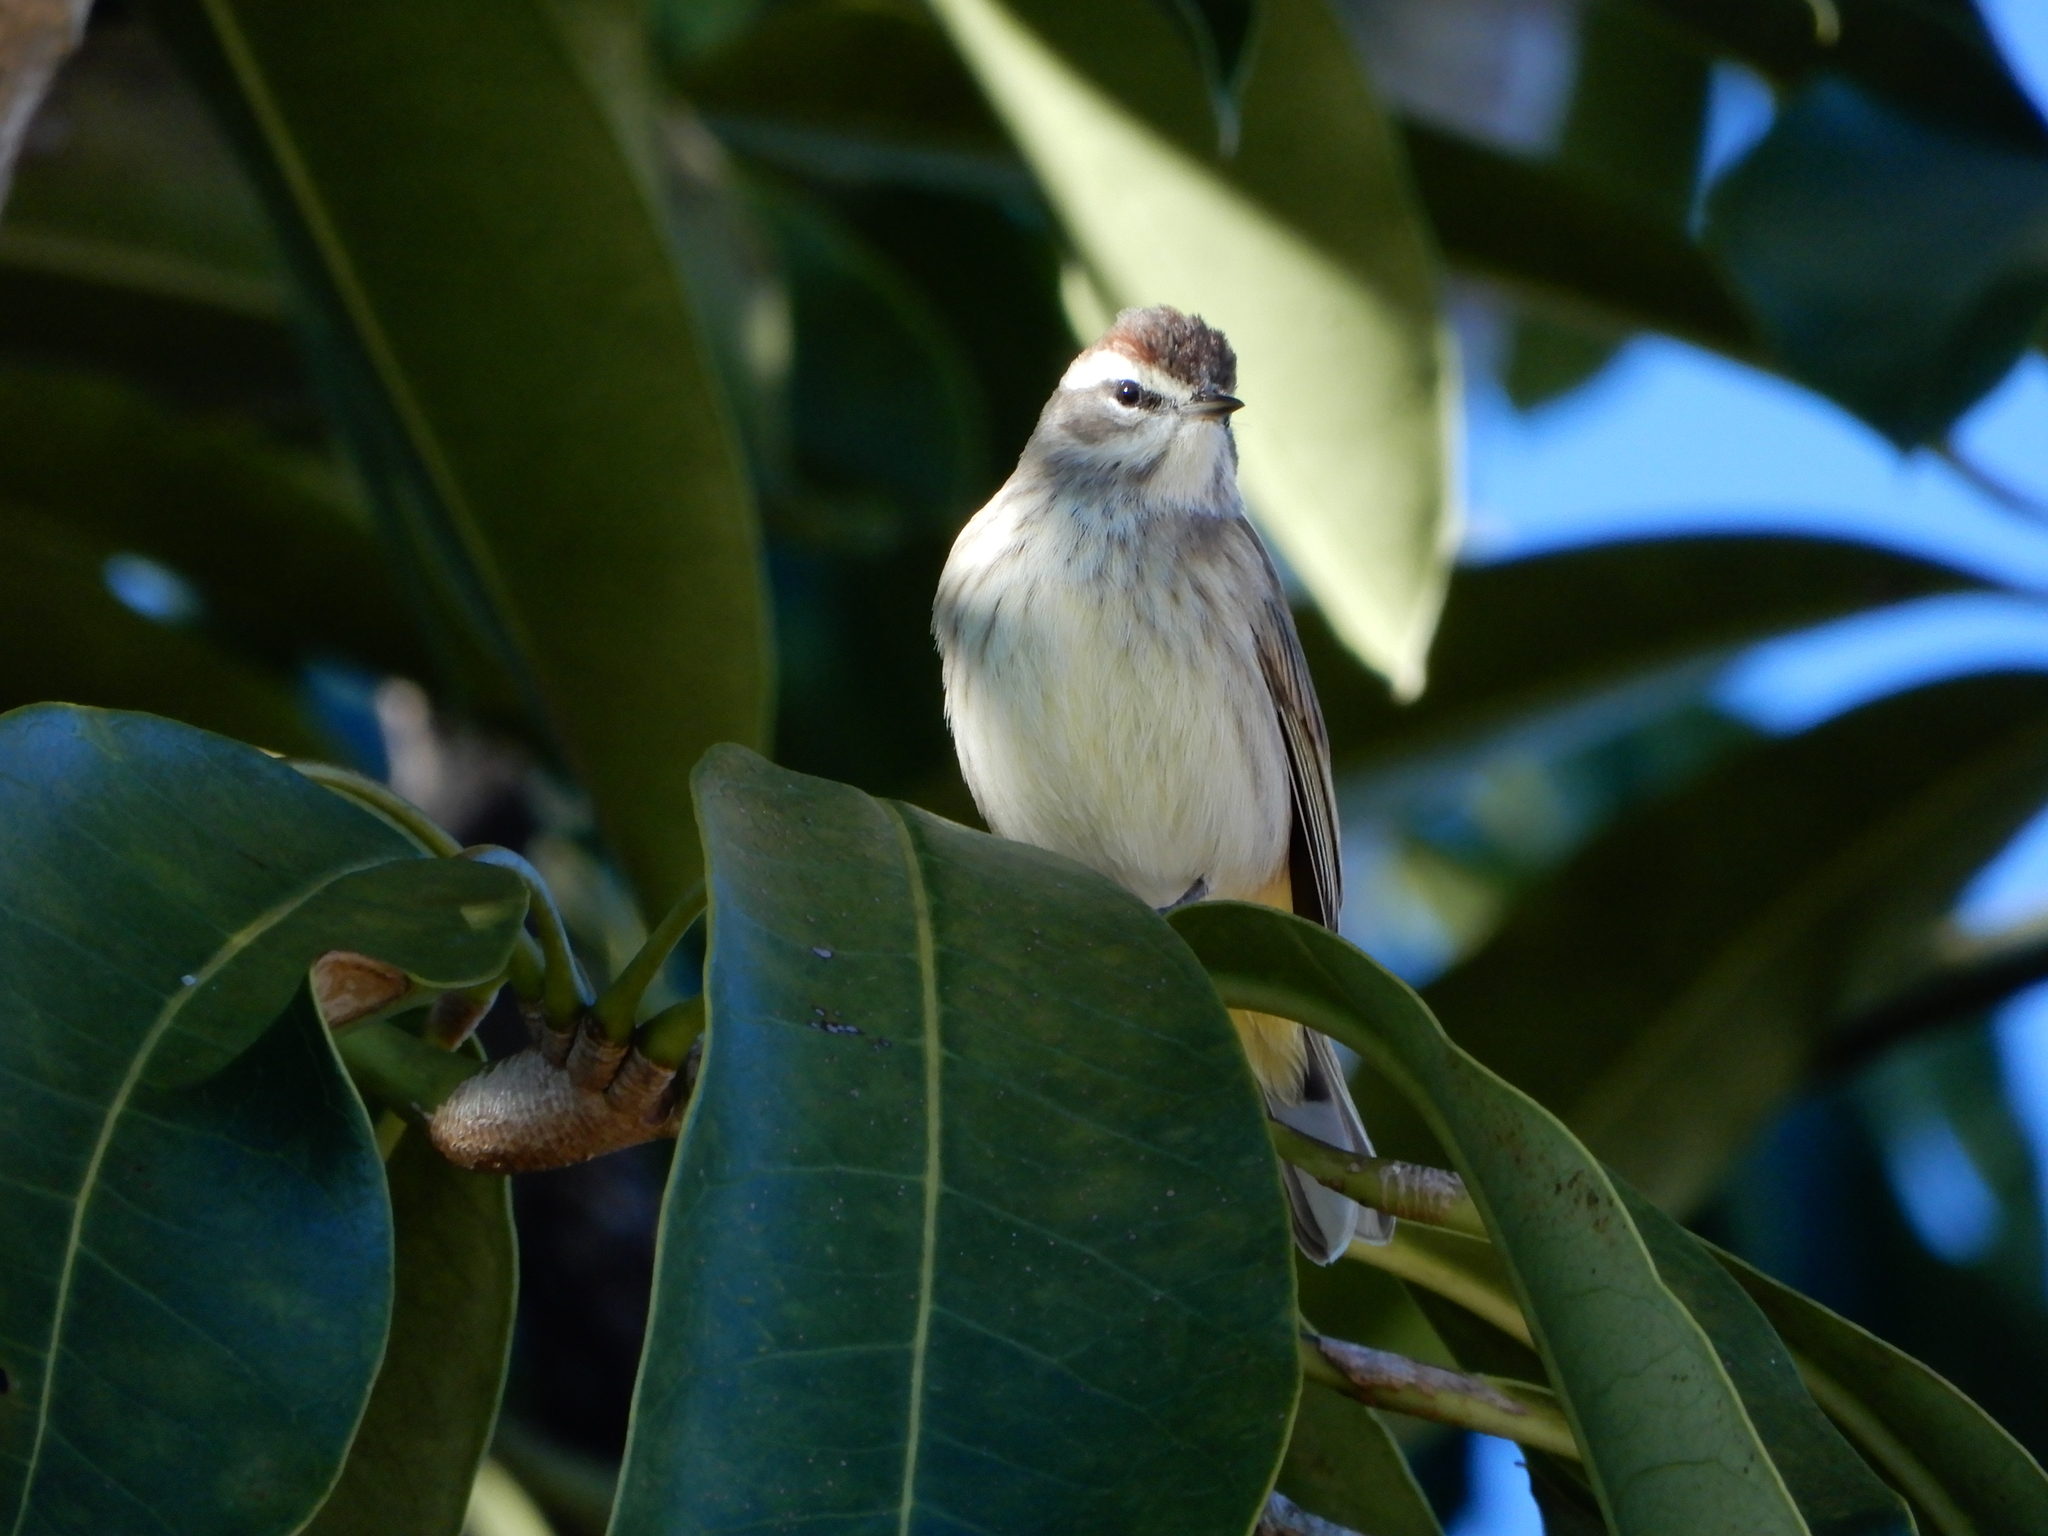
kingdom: Animalia
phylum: Chordata
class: Aves
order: Passeriformes
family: Parulidae
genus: Setophaga
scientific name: Setophaga palmarum
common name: Palm warbler
